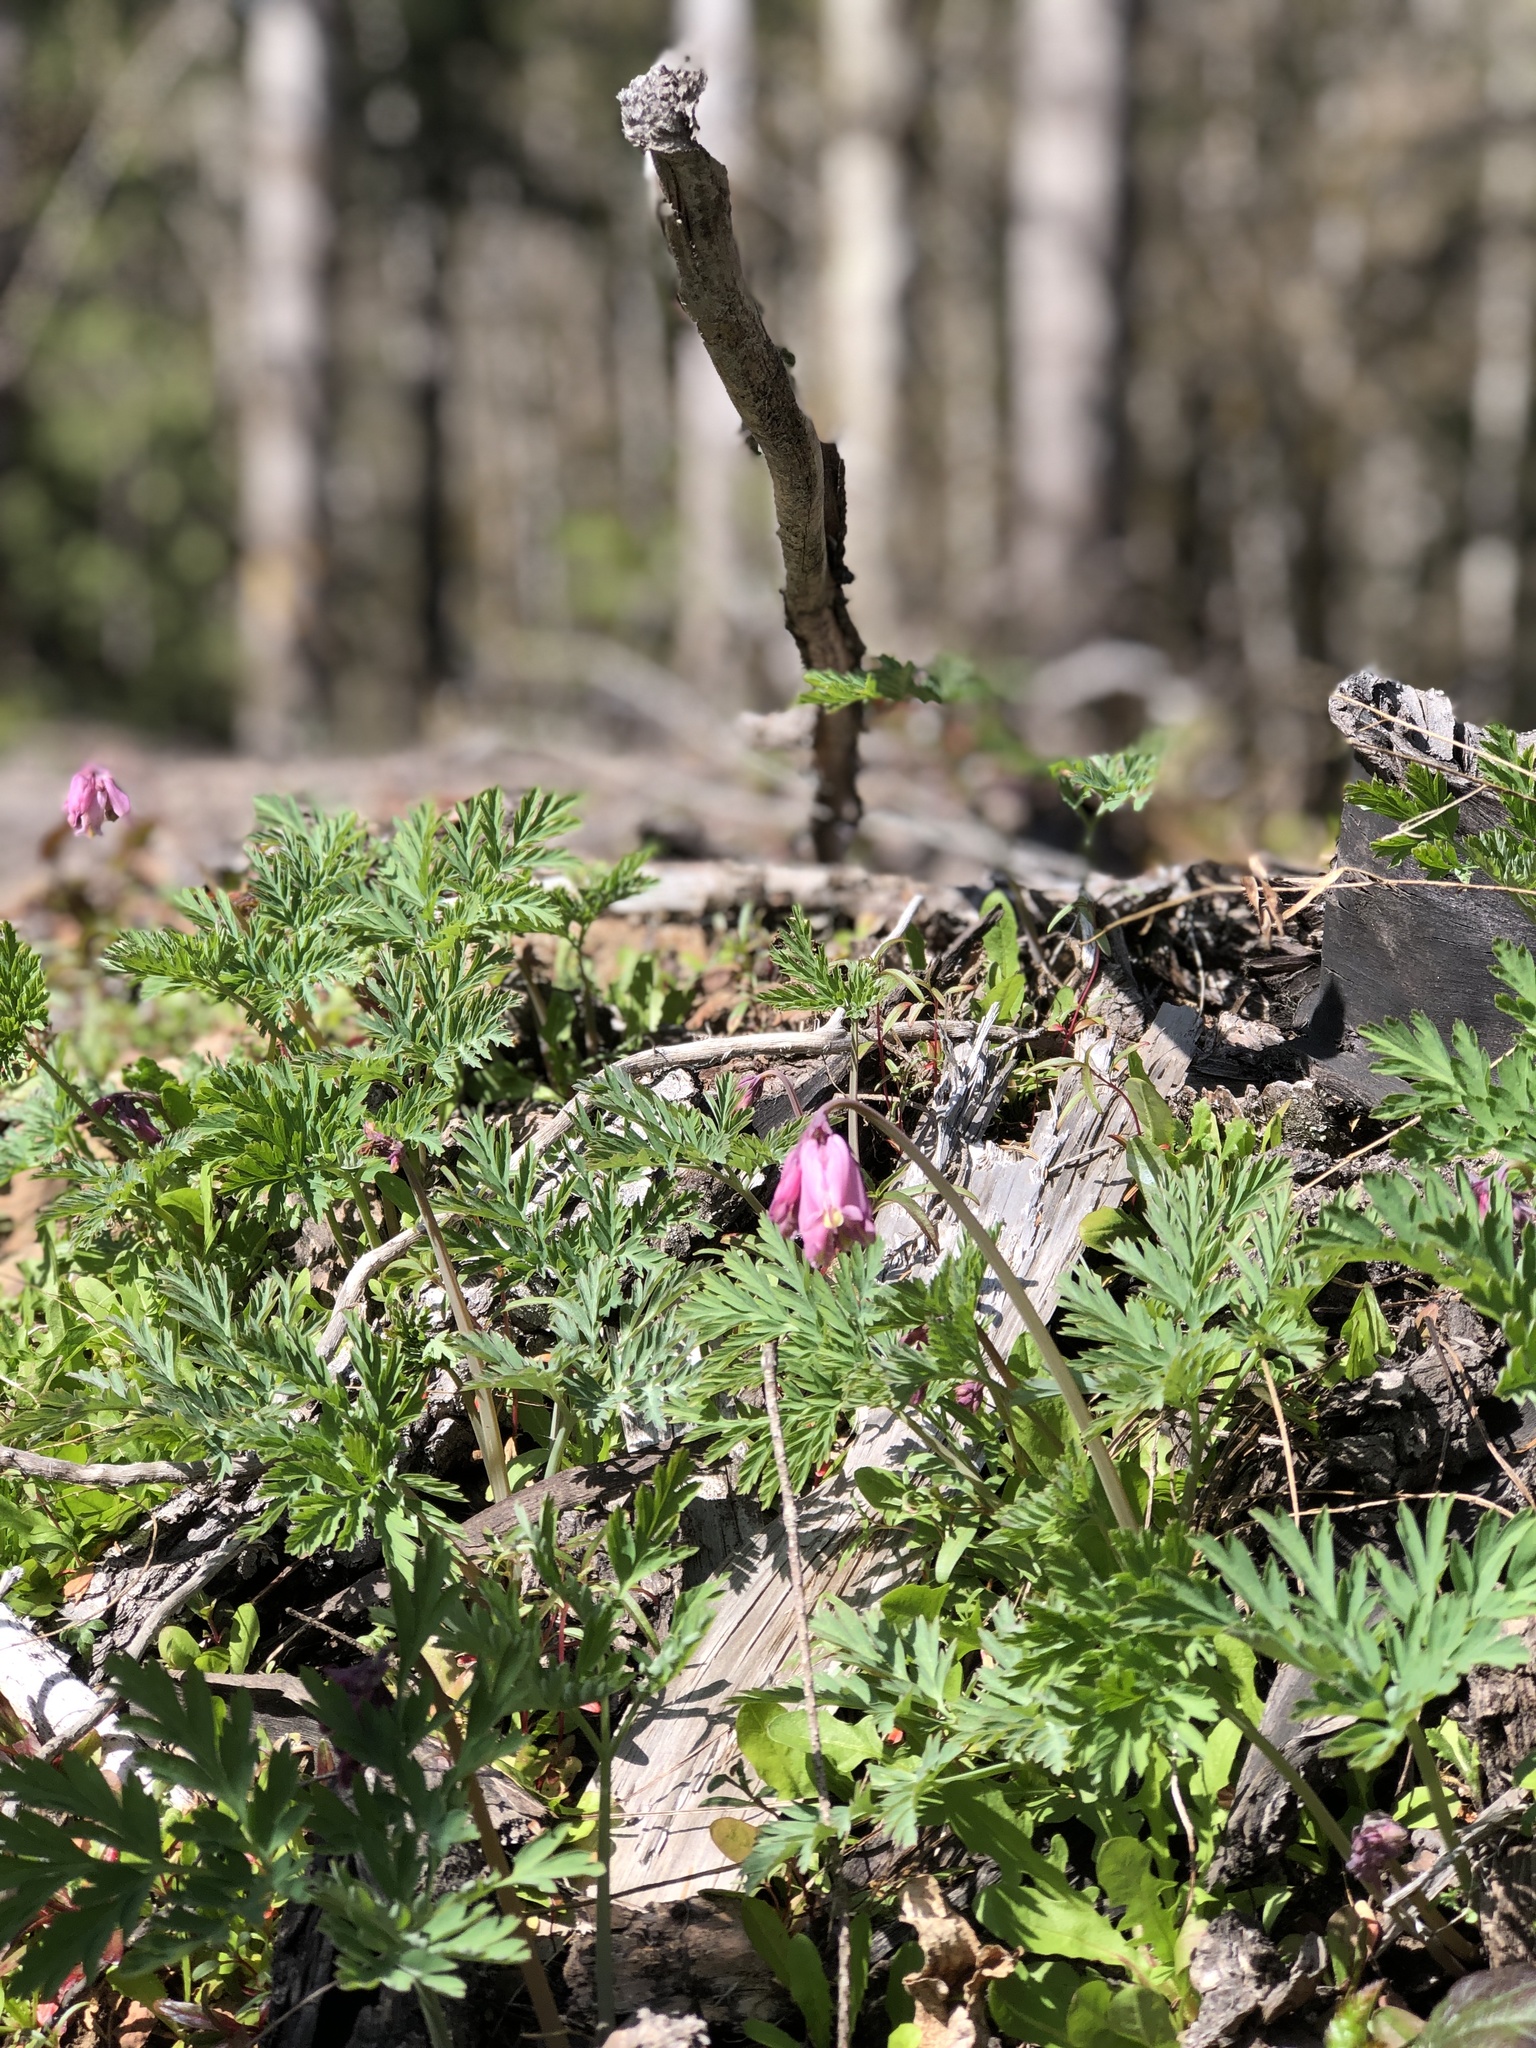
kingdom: Plantae
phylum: Tracheophyta
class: Magnoliopsida
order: Ranunculales
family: Papaveraceae
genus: Dicentra
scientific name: Dicentra formosa
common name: Bleeding-heart
